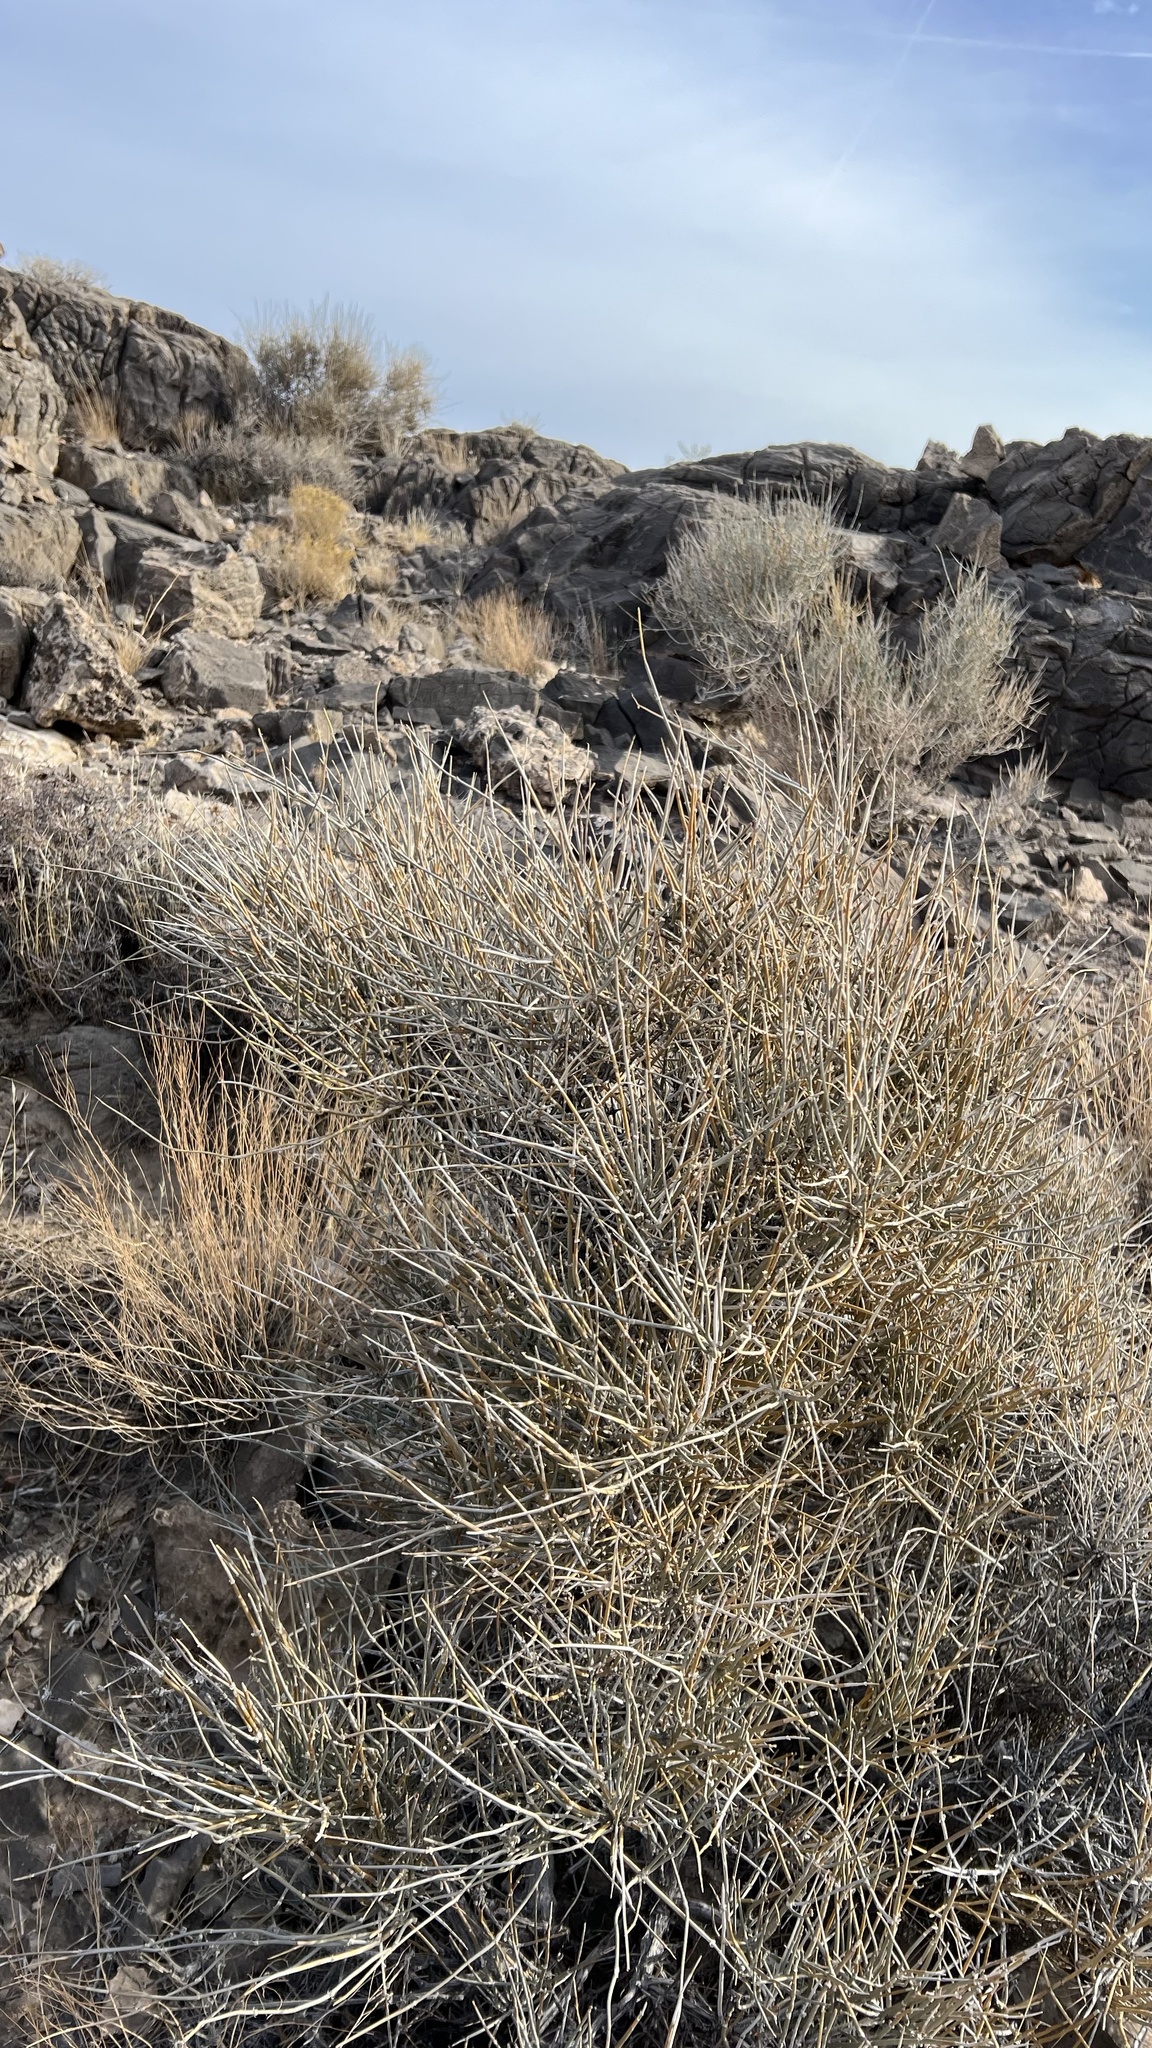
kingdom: Plantae
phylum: Tracheophyta
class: Gnetopsida
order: Ephedrales
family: Ephedraceae
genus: Ephedra
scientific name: Ephedra nevadensis
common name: Gray ephedra
